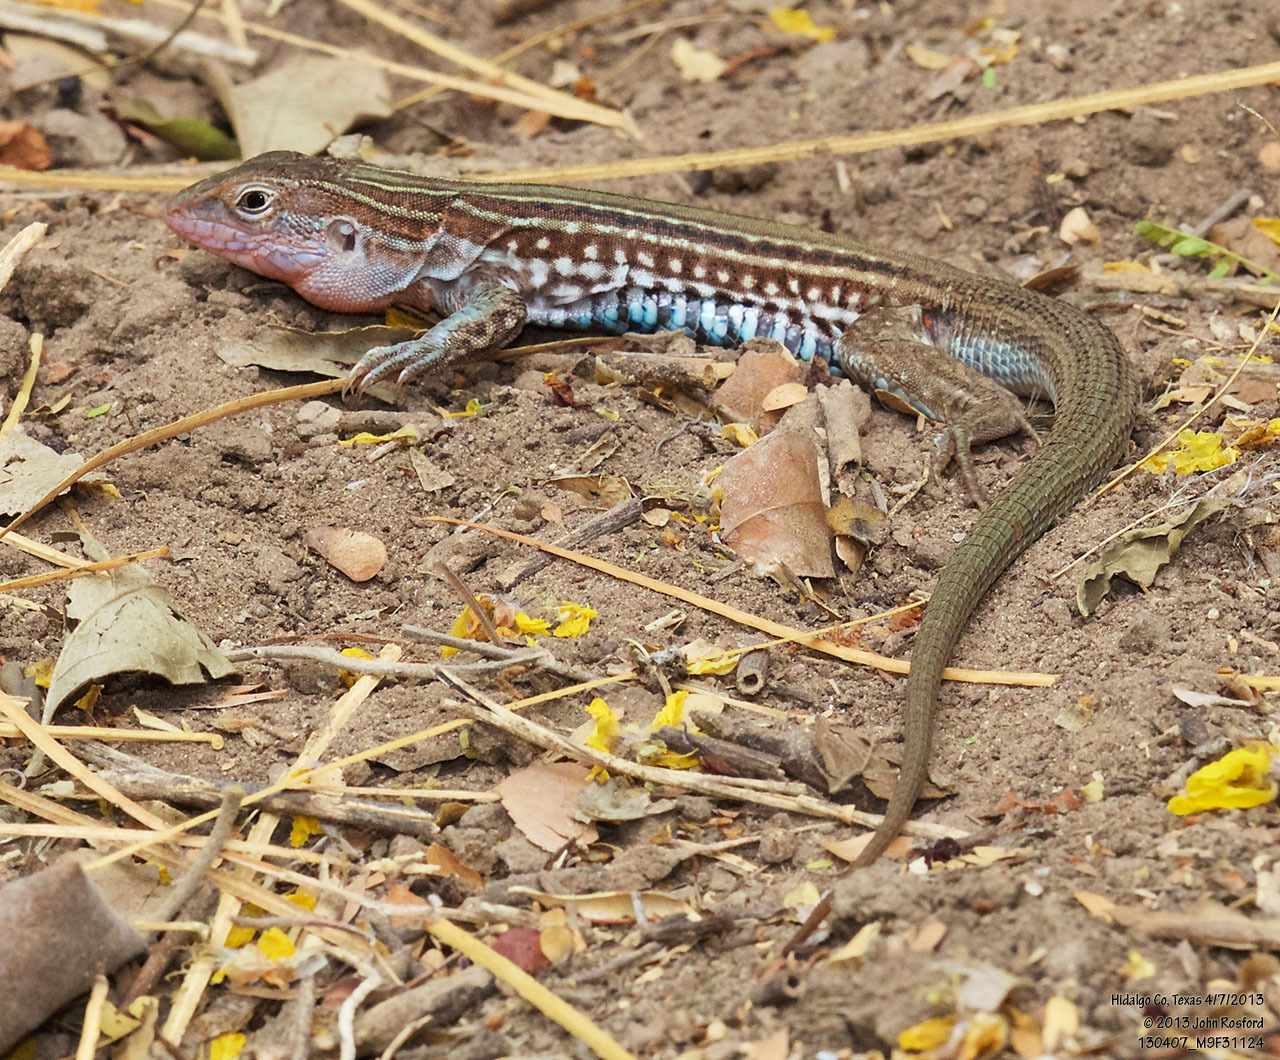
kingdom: Animalia
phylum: Chordata
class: Squamata
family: Teiidae
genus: Aspidoscelis
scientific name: Aspidoscelis gularis
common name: Eastern spotted whiptail
